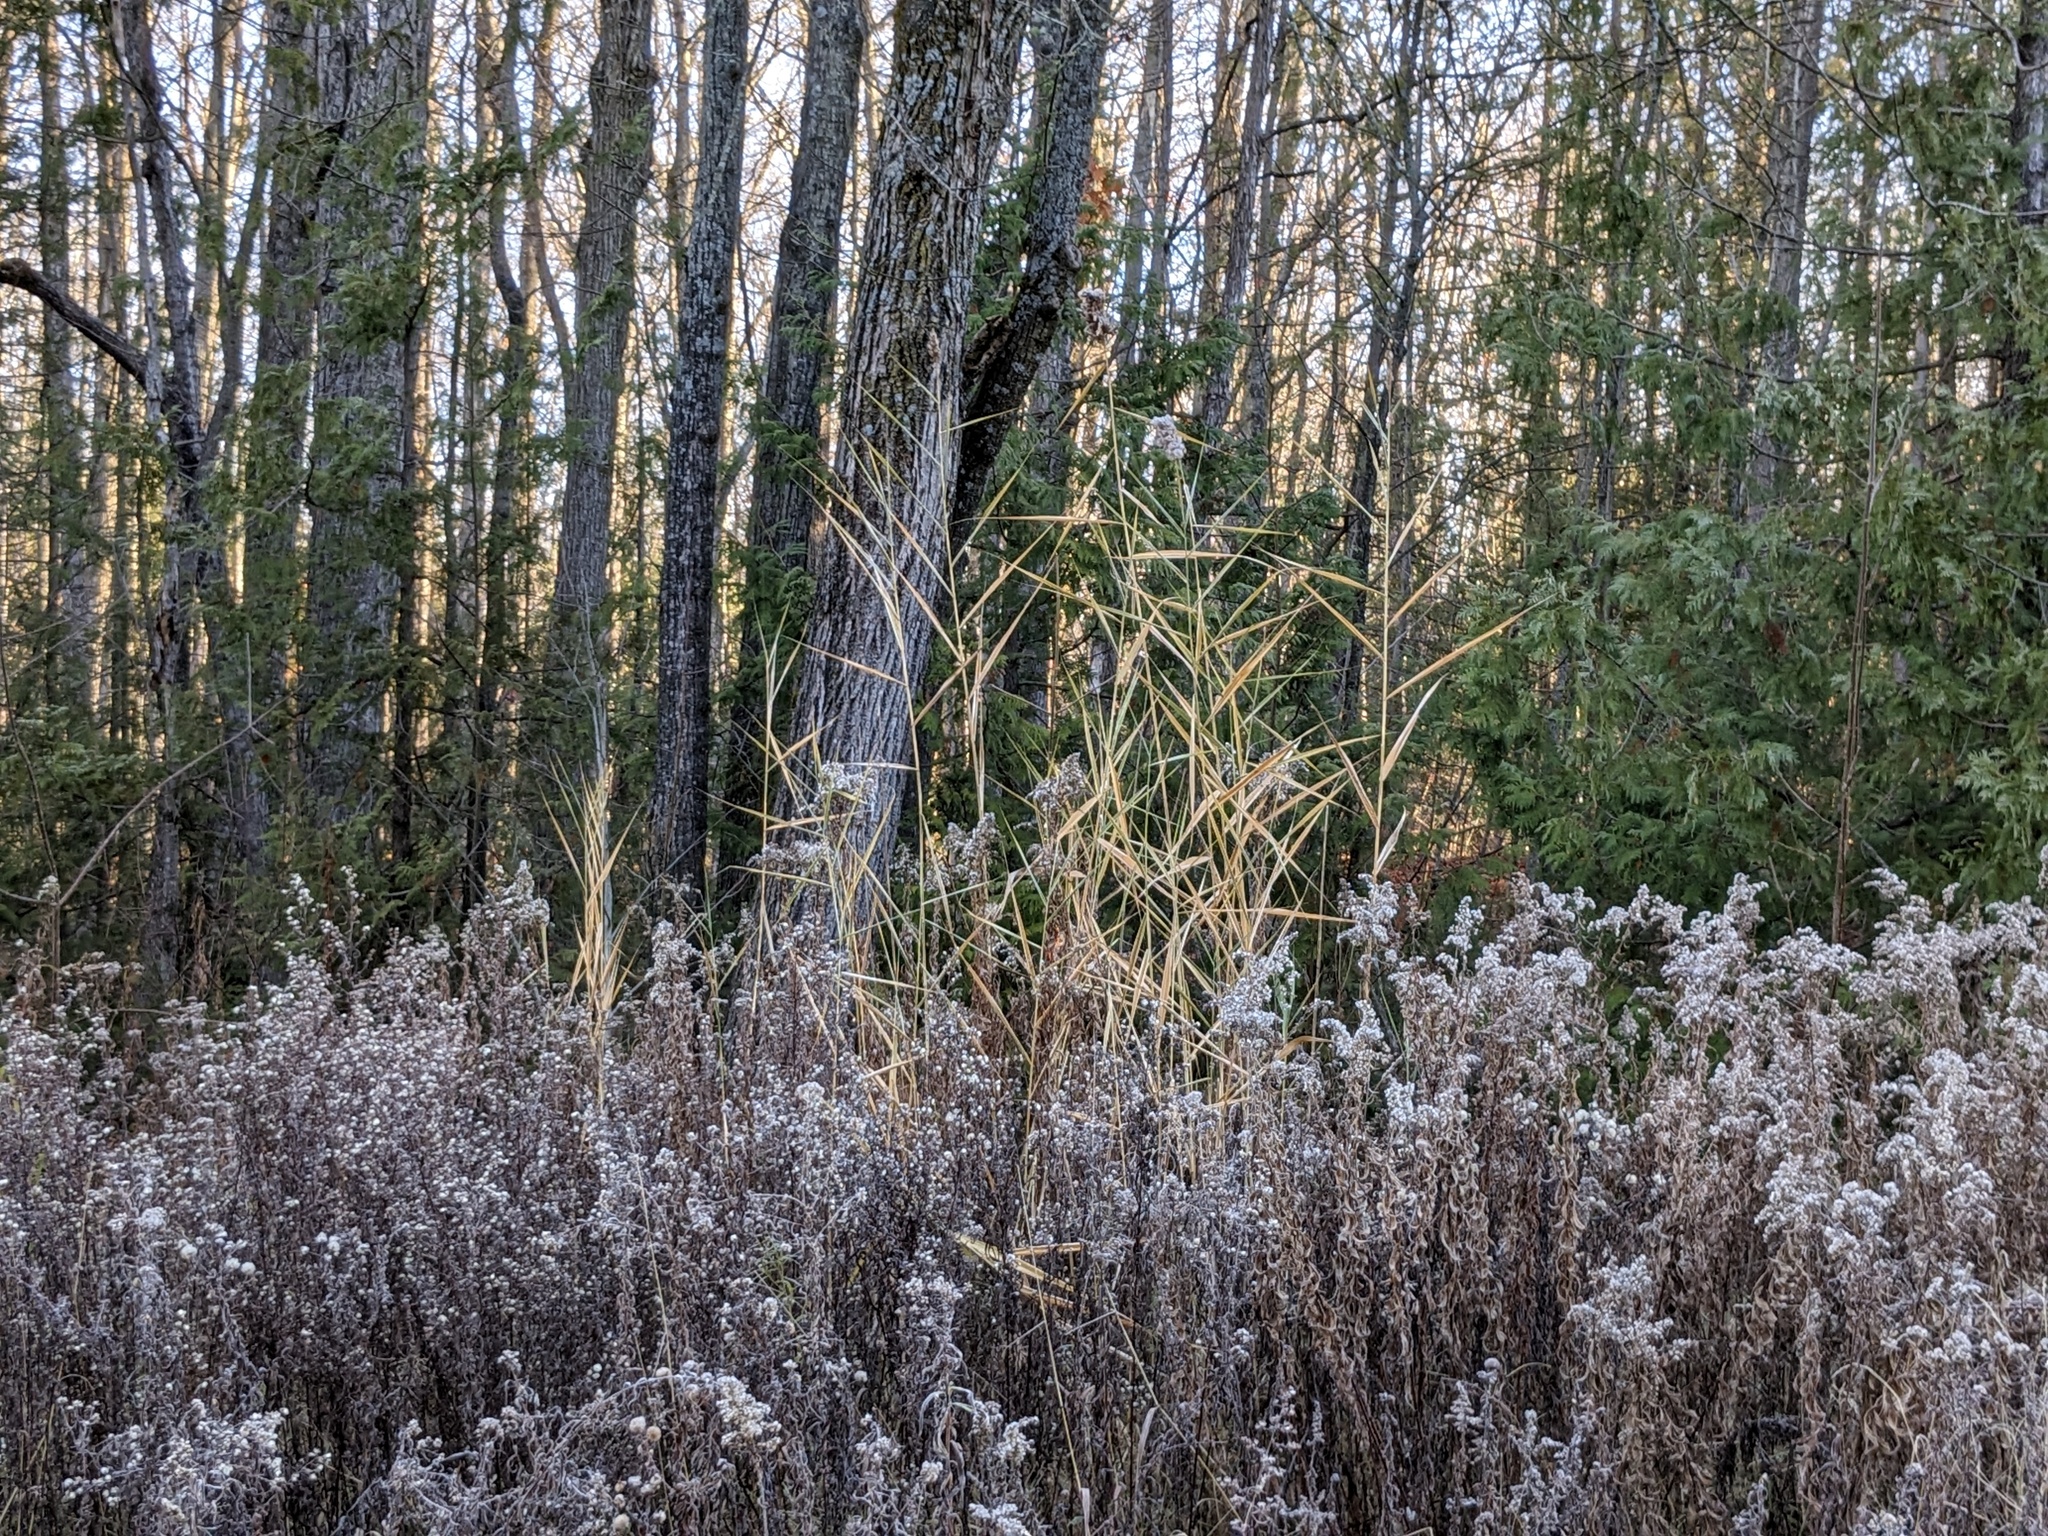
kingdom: Plantae
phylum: Tracheophyta
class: Liliopsida
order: Poales
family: Poaceae
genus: Phragmites
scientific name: Phragmites australis
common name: Common reed
